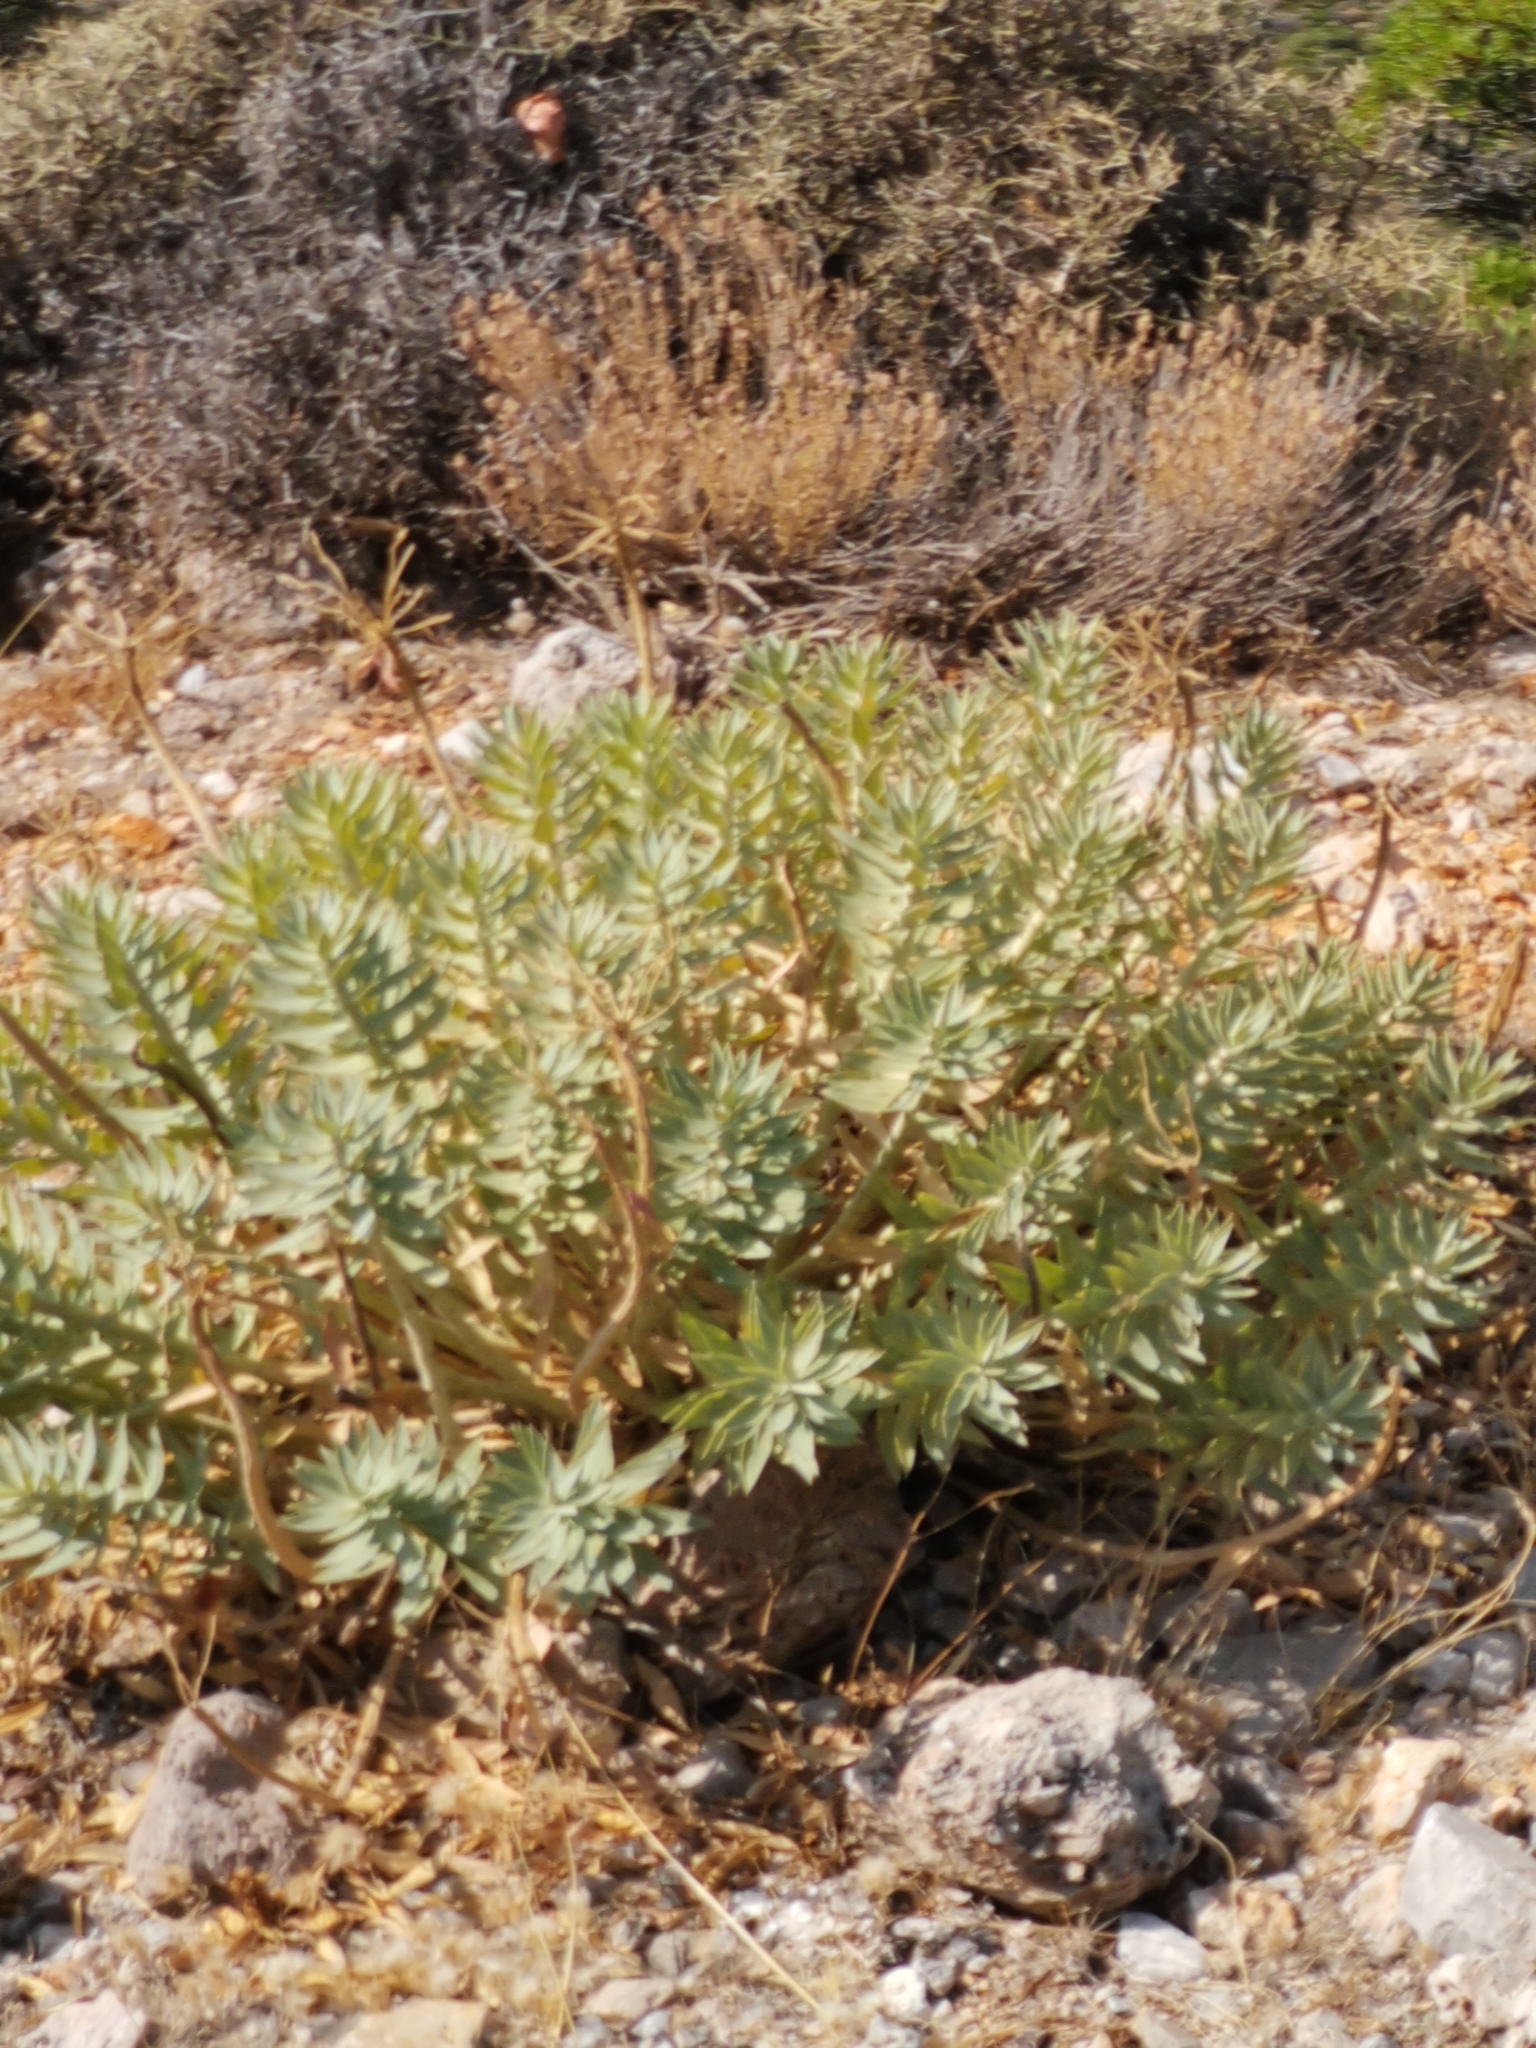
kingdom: Plantae
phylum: Tracheophyta
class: Magnoliopsida
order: Malpighiales
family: Euphorbiaceae
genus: Euphorbia
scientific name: Euphorbia rigida
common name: Upright myrtle spurge
